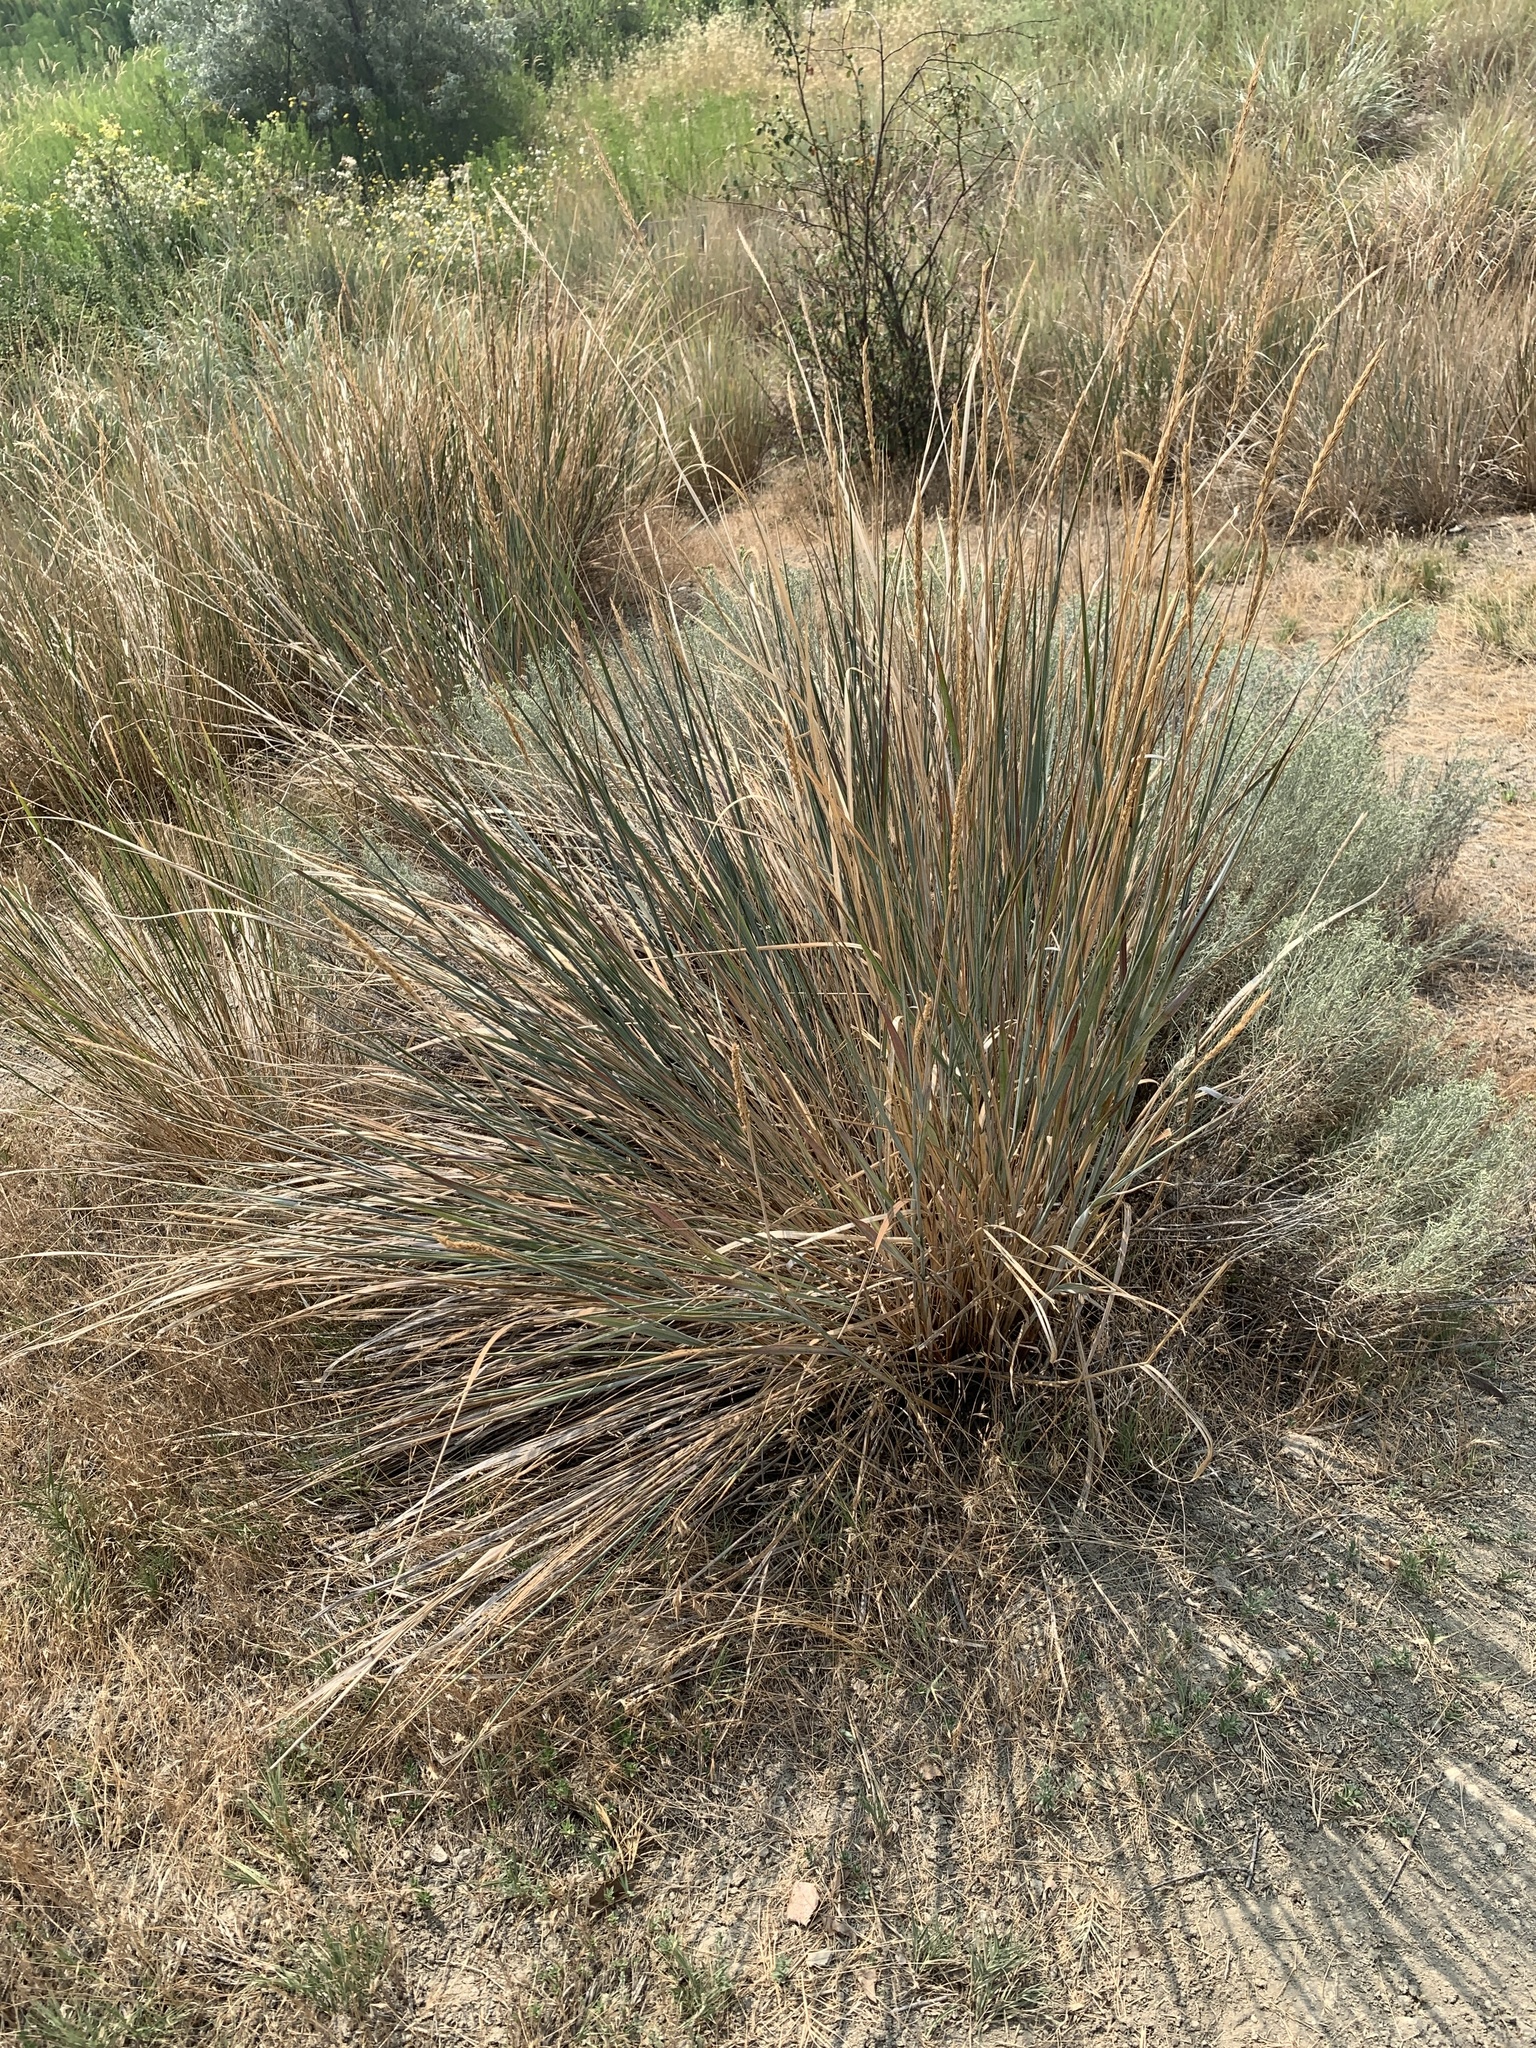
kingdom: Plantae
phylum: Tracheophyta
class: Liliopsida
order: Poales
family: Poaceae
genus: Leymus
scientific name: Leymus cinereus
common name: Basin wild rye
